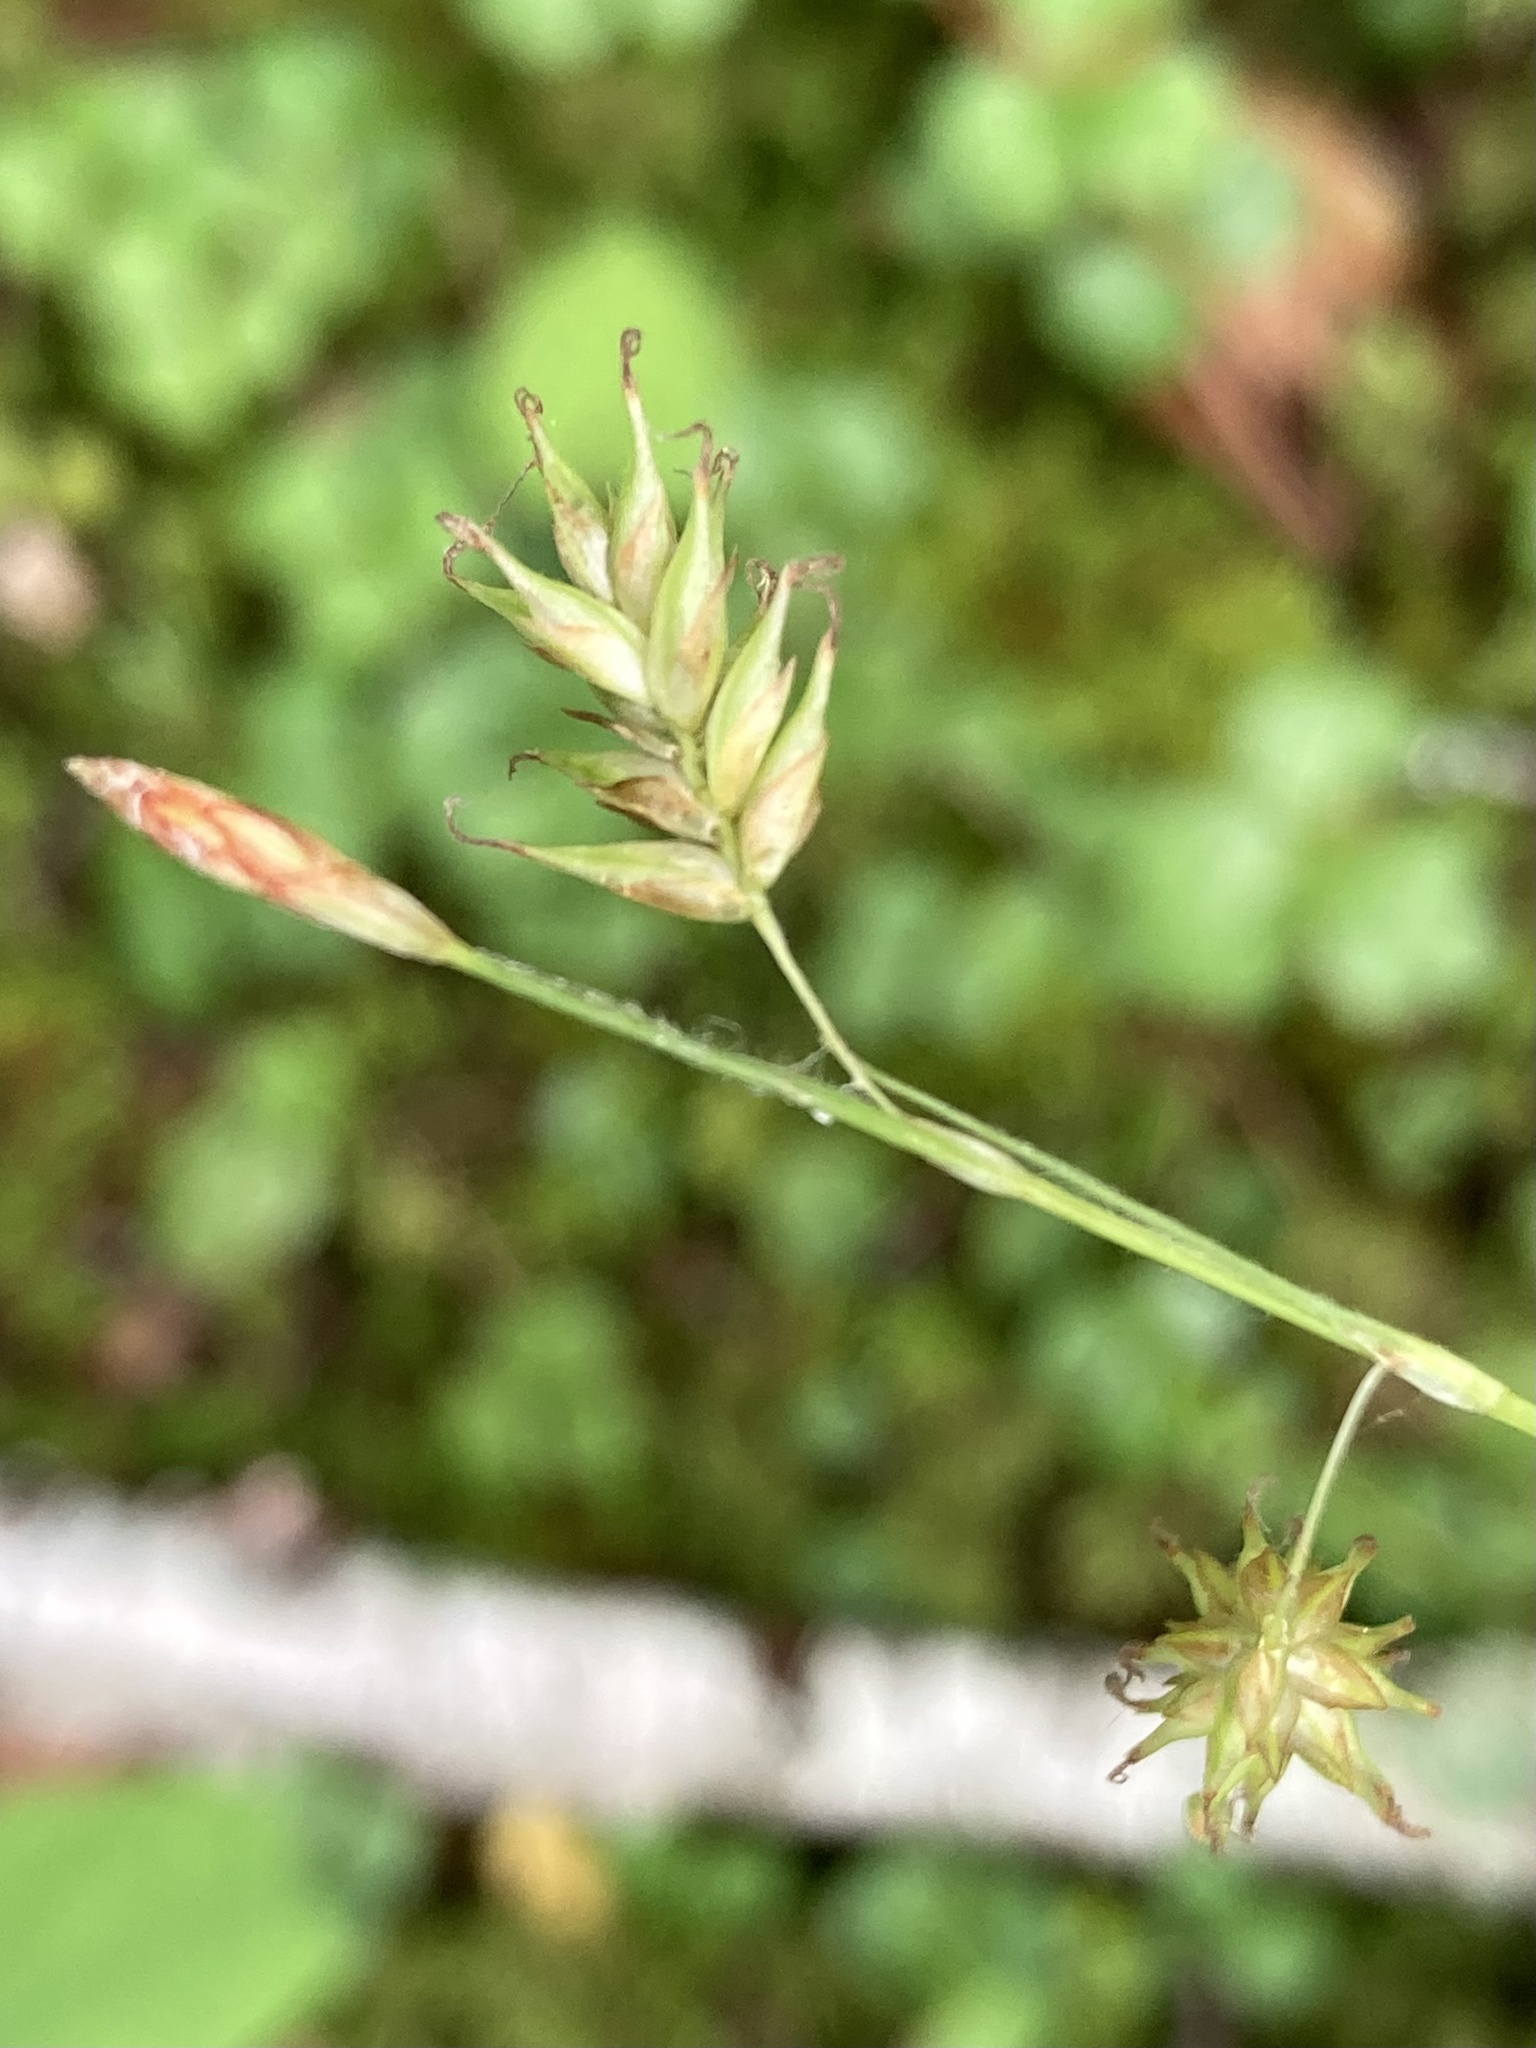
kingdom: Plantae
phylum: Tracheophyta
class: Liliopsida
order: Poales
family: Cyperaceae
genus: Carex
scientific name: Carex castanea
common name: Chestnut sedge
